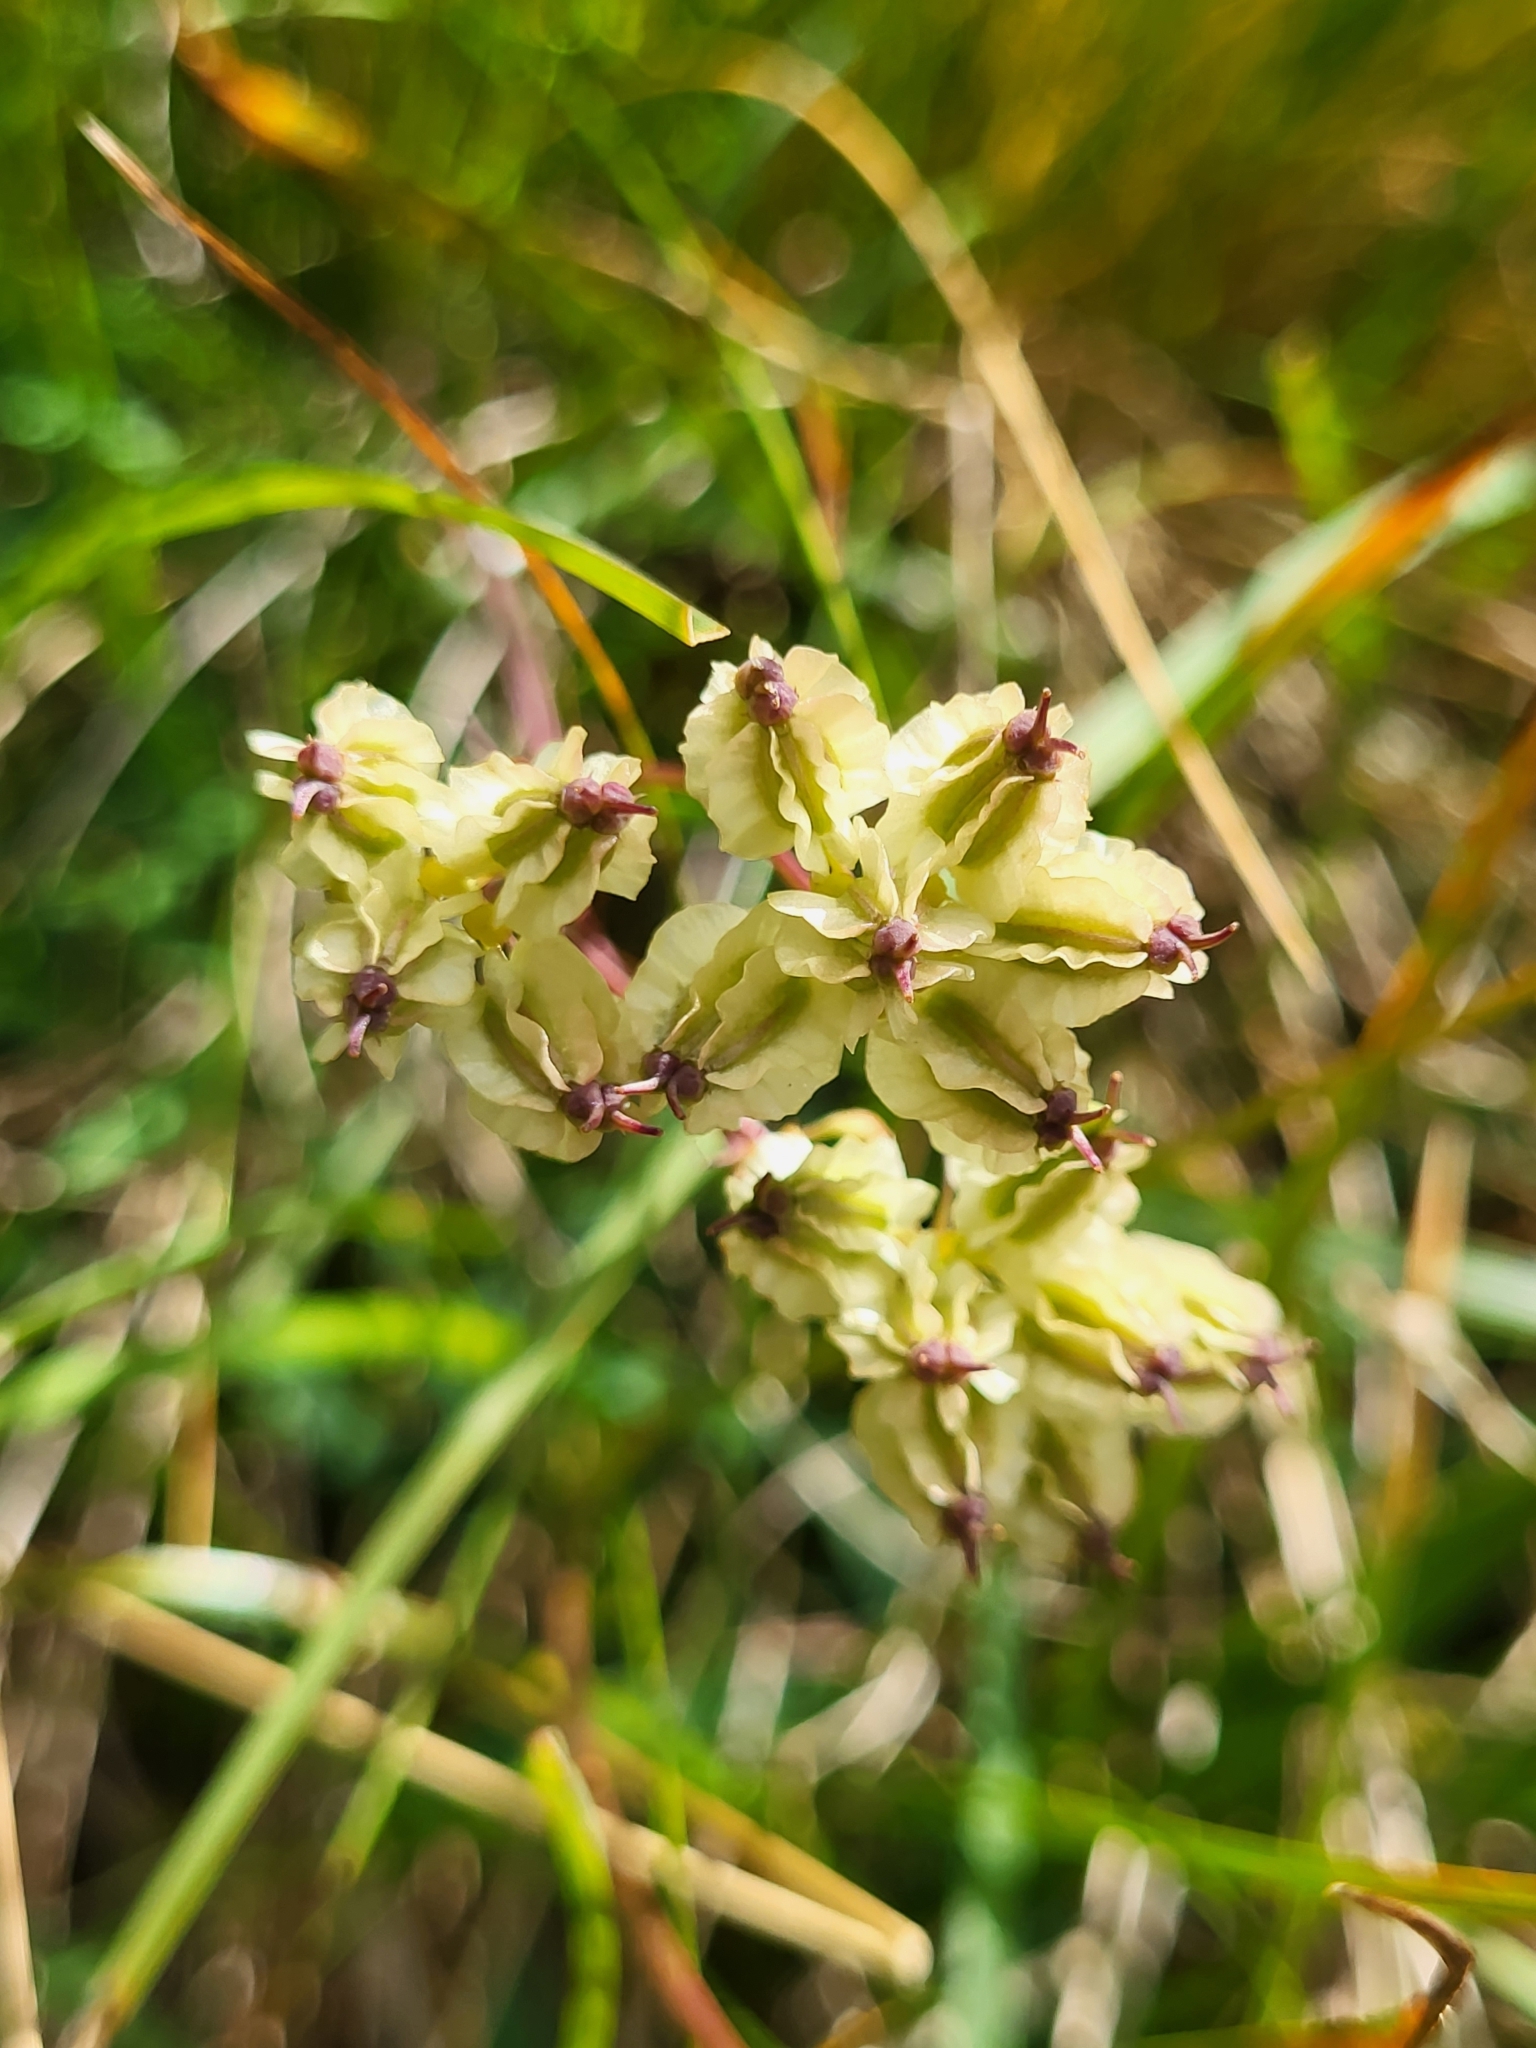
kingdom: Plantae
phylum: Tracheophyta
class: Magnoliopsida
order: Apiales
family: Apiaceae
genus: Laserpitium
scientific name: Laserpitium peucedanoides
